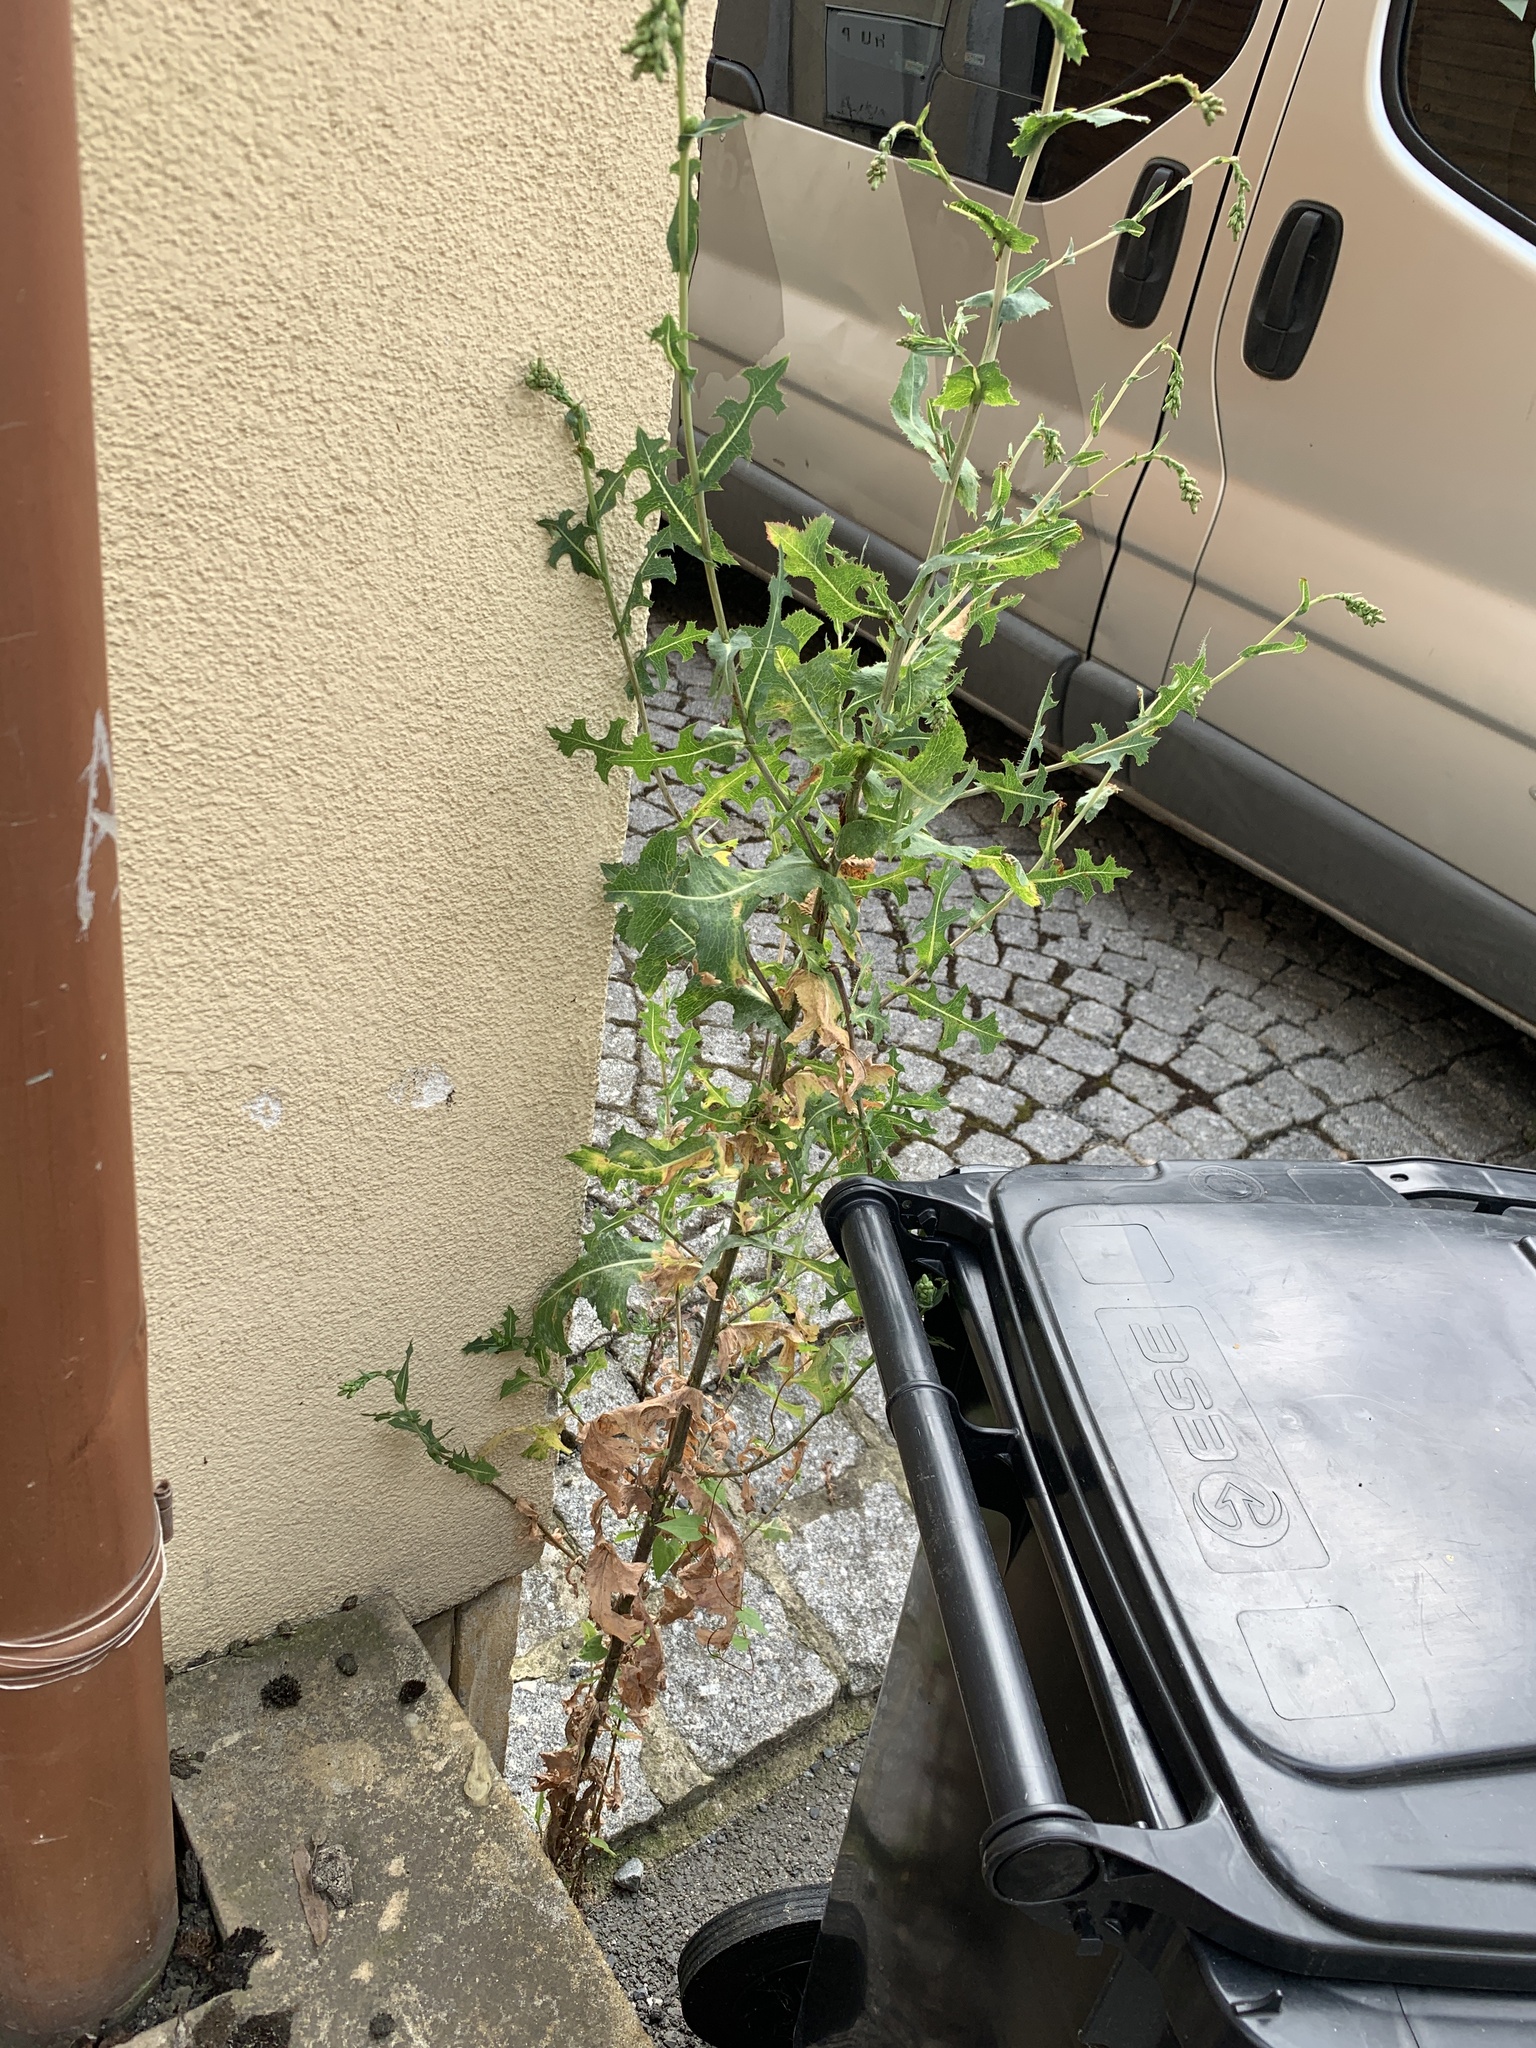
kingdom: Plantae
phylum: Tracheophyta
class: Magnoliopsida
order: Asterales
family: Asteraceae
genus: Lactuca
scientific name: Lactuca serriola
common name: Prickly lettuce
